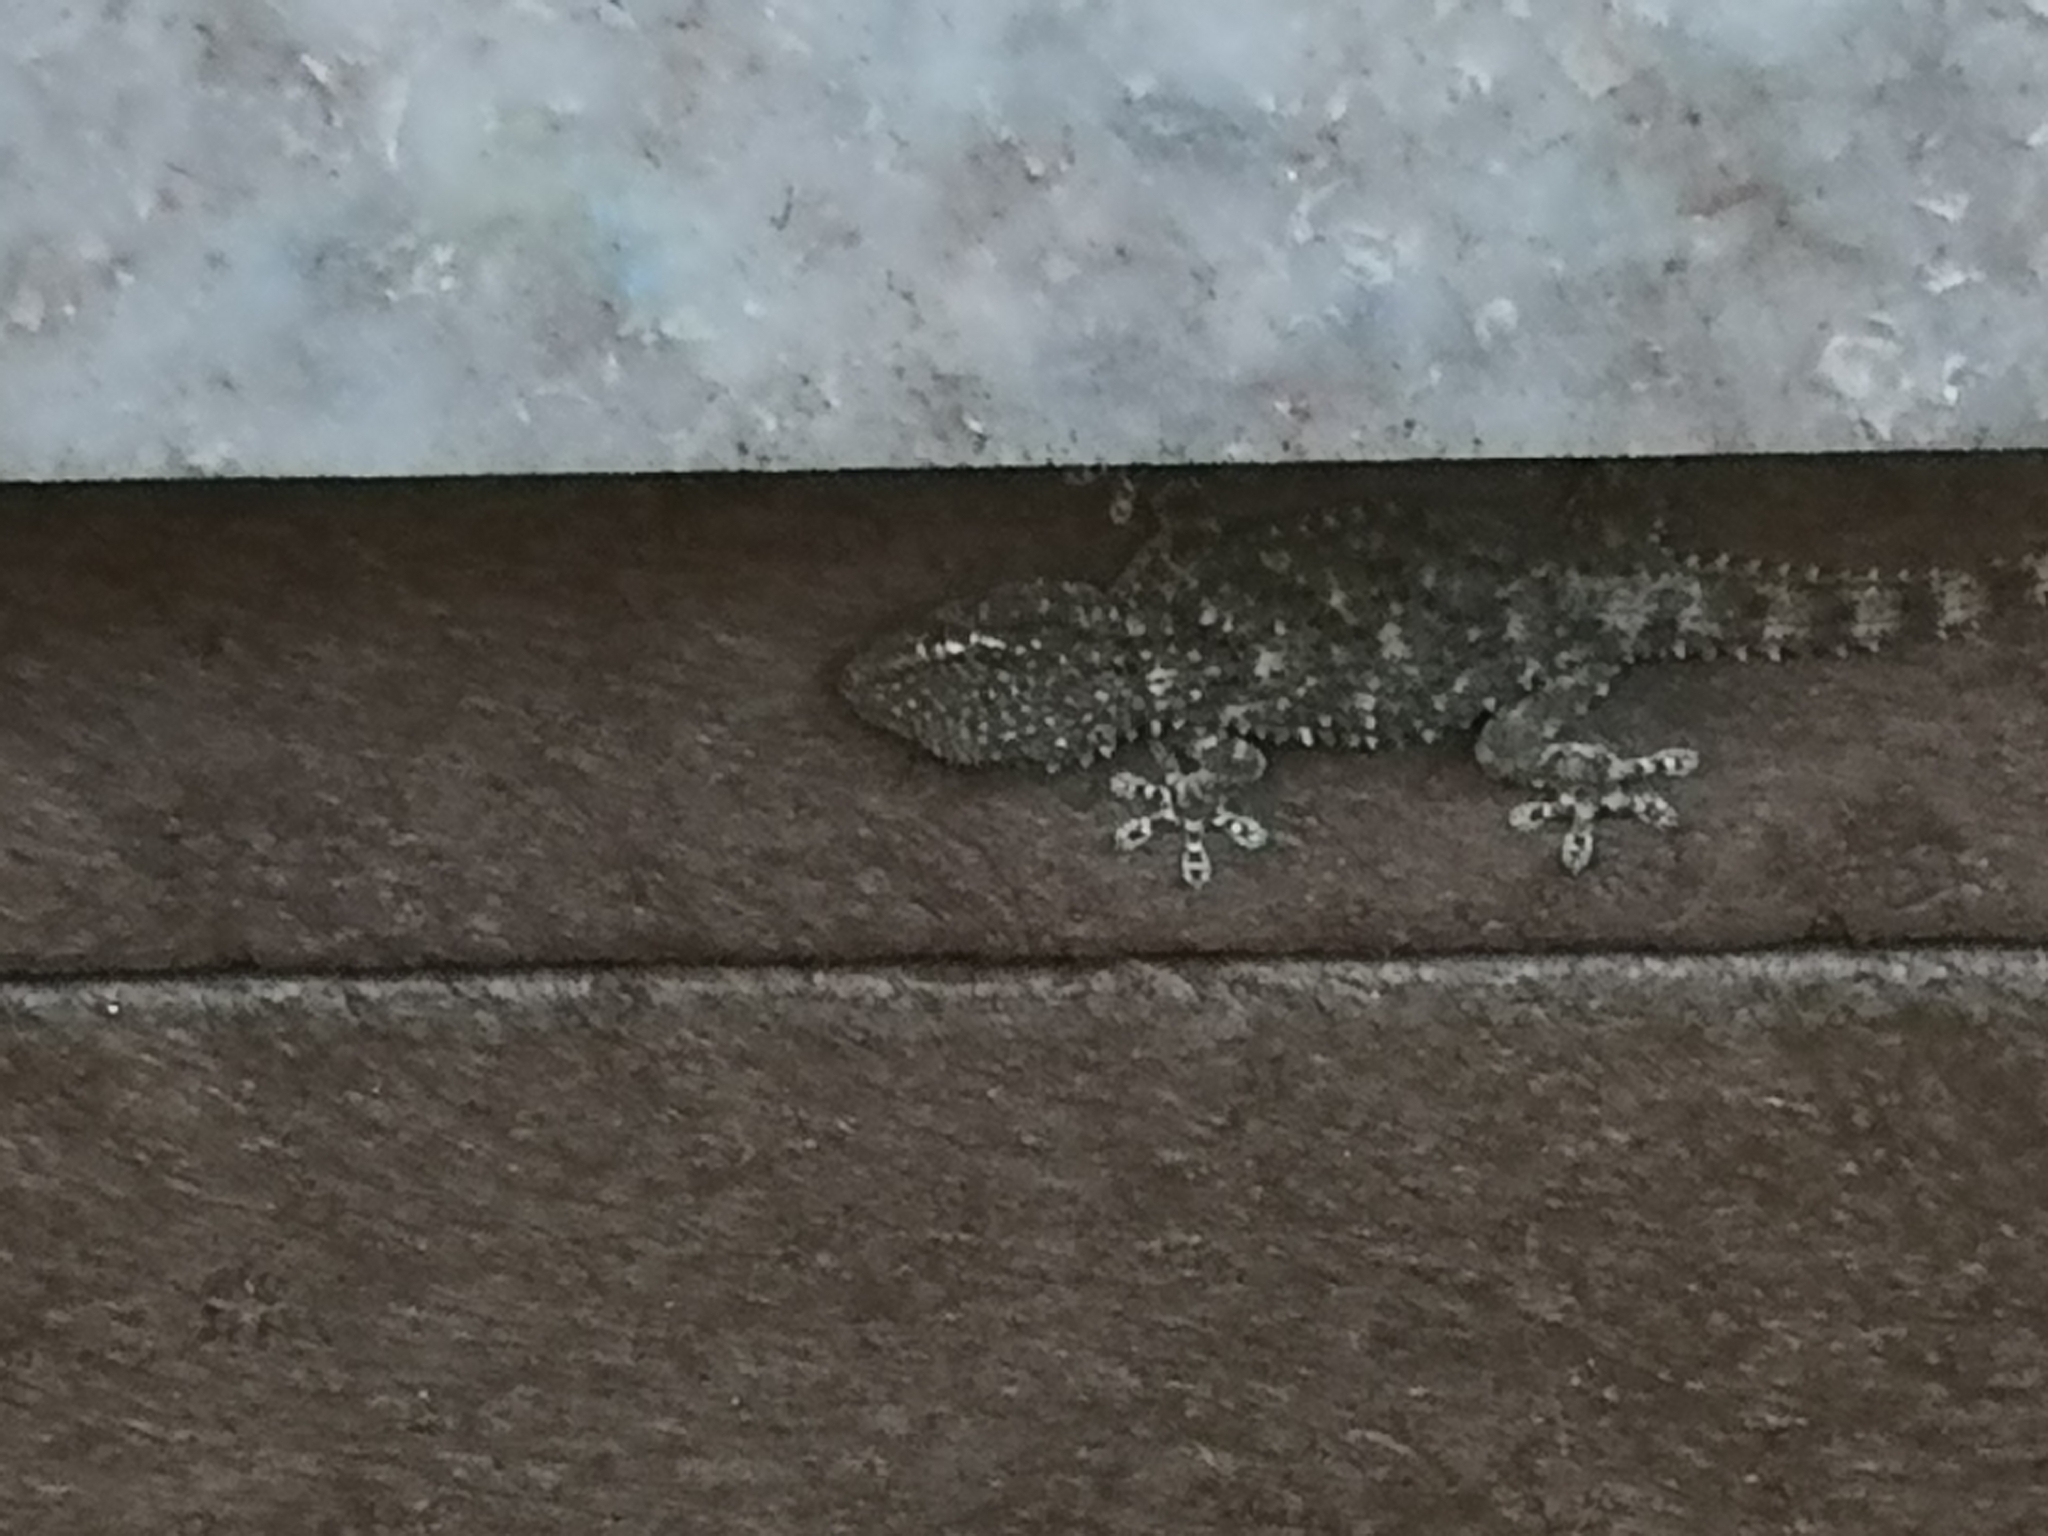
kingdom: Animalia
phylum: Chordata
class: Squamata
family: Phyllodactylidae
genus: Tarentola
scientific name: Tarentola mauritanica
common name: Moorish gecko
